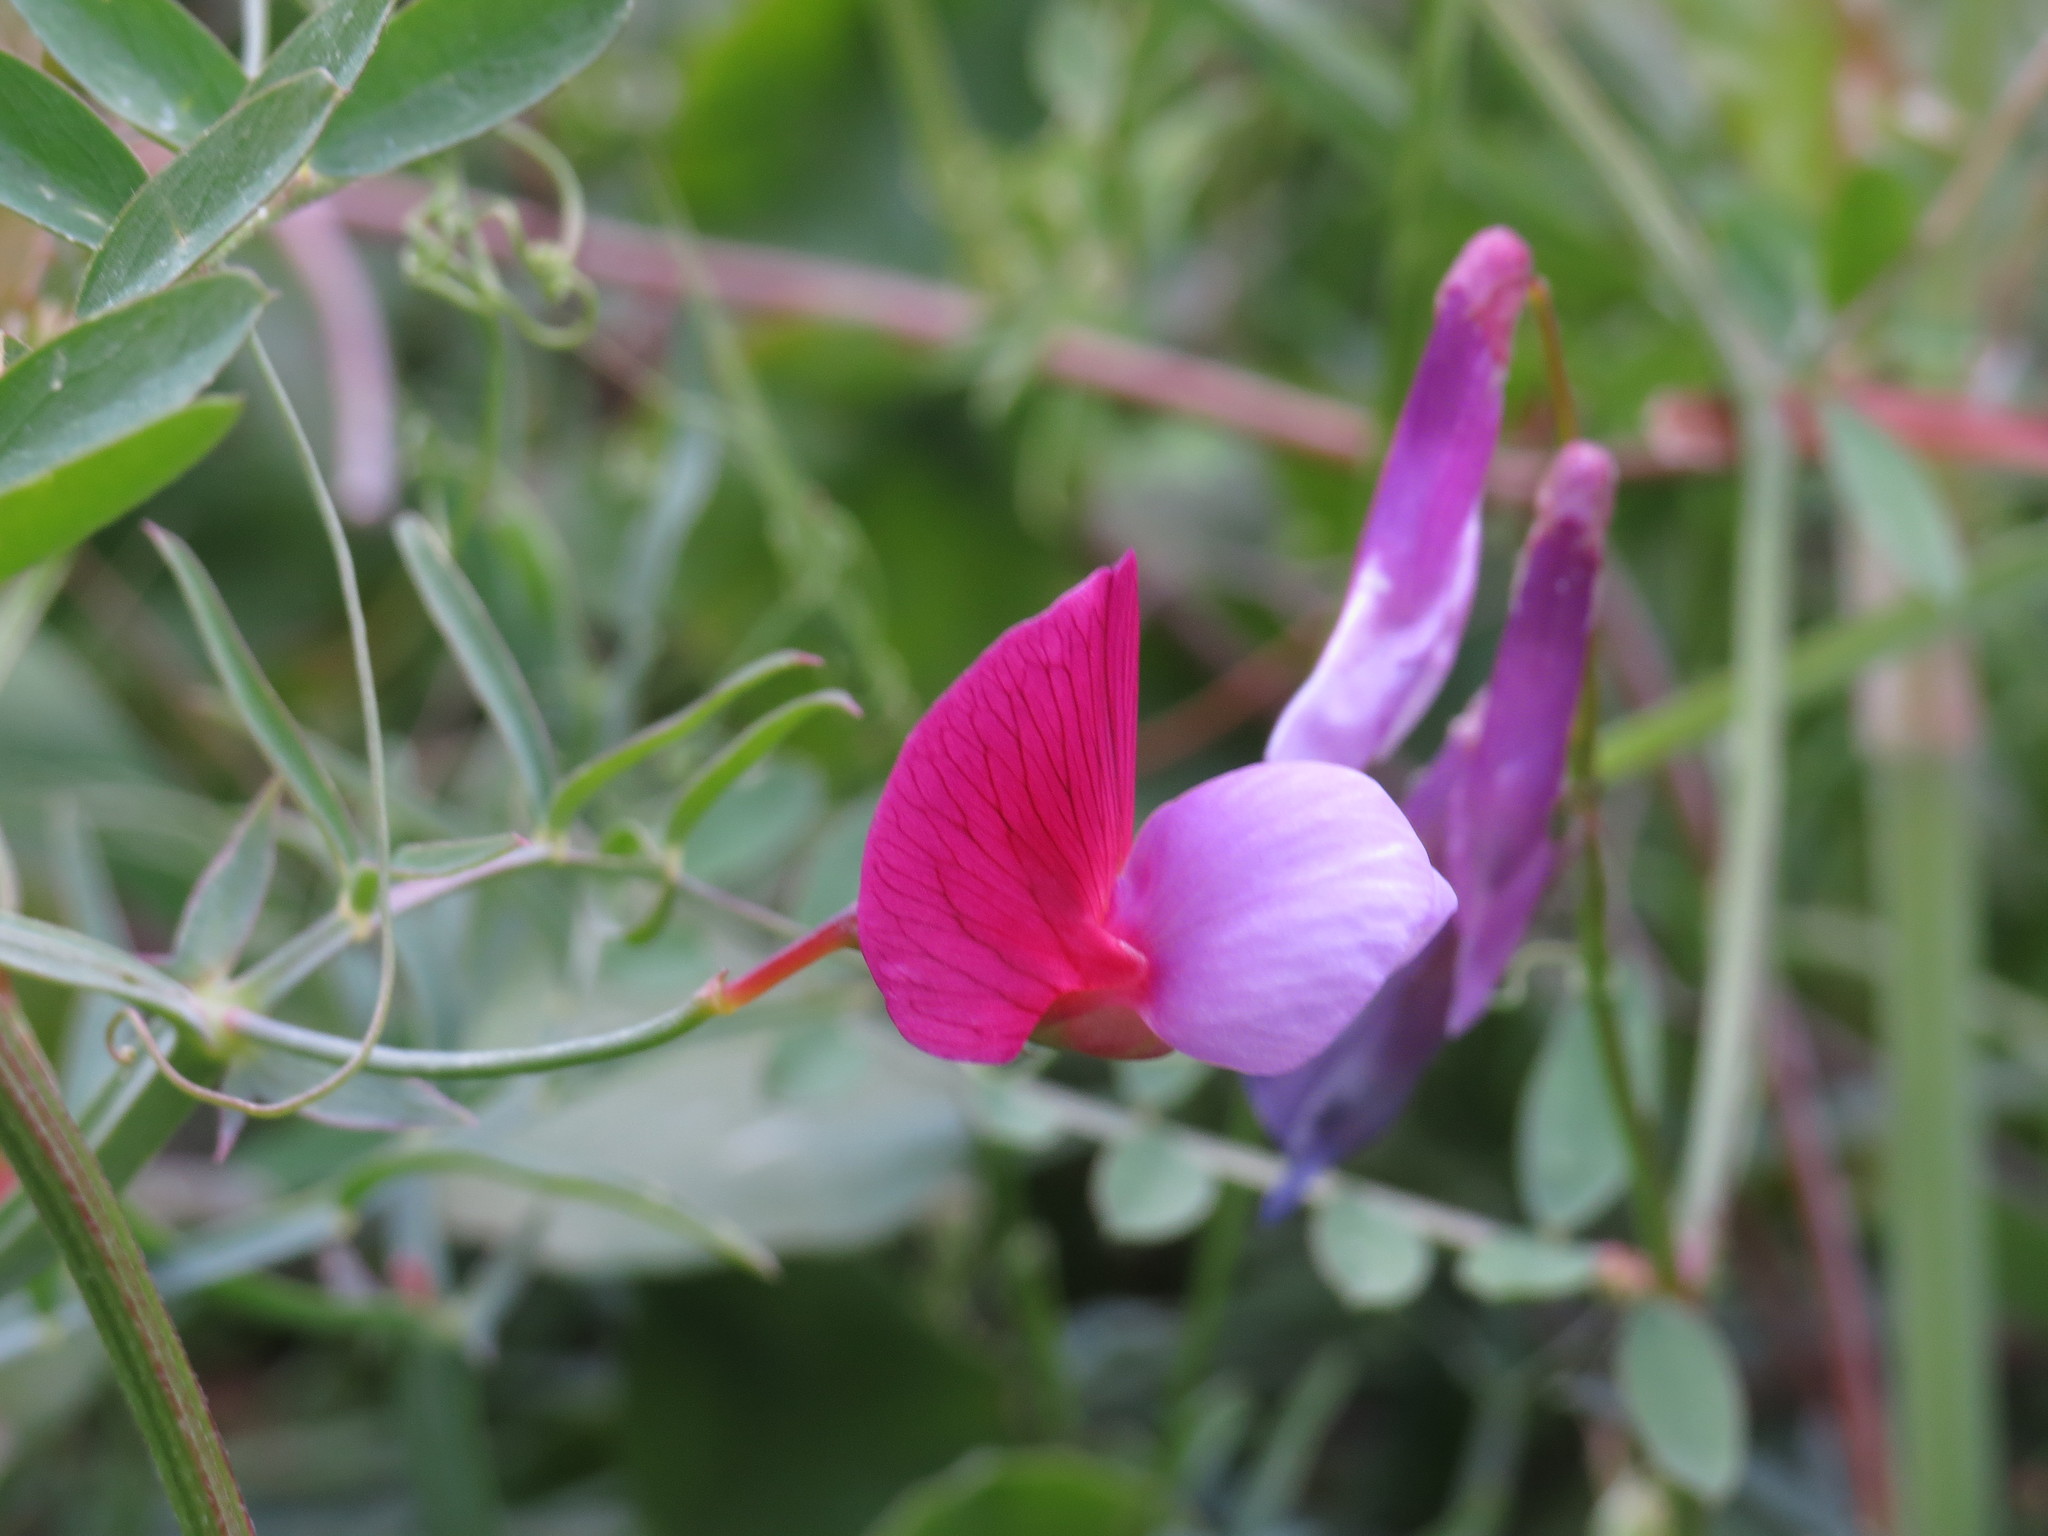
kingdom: Plantae
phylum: Tracheophyta
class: Magnoliopsida
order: Fabales
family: Fabaceae
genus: Lathyrus
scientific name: Lathyrus clymenum
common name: Spanish vetchling
